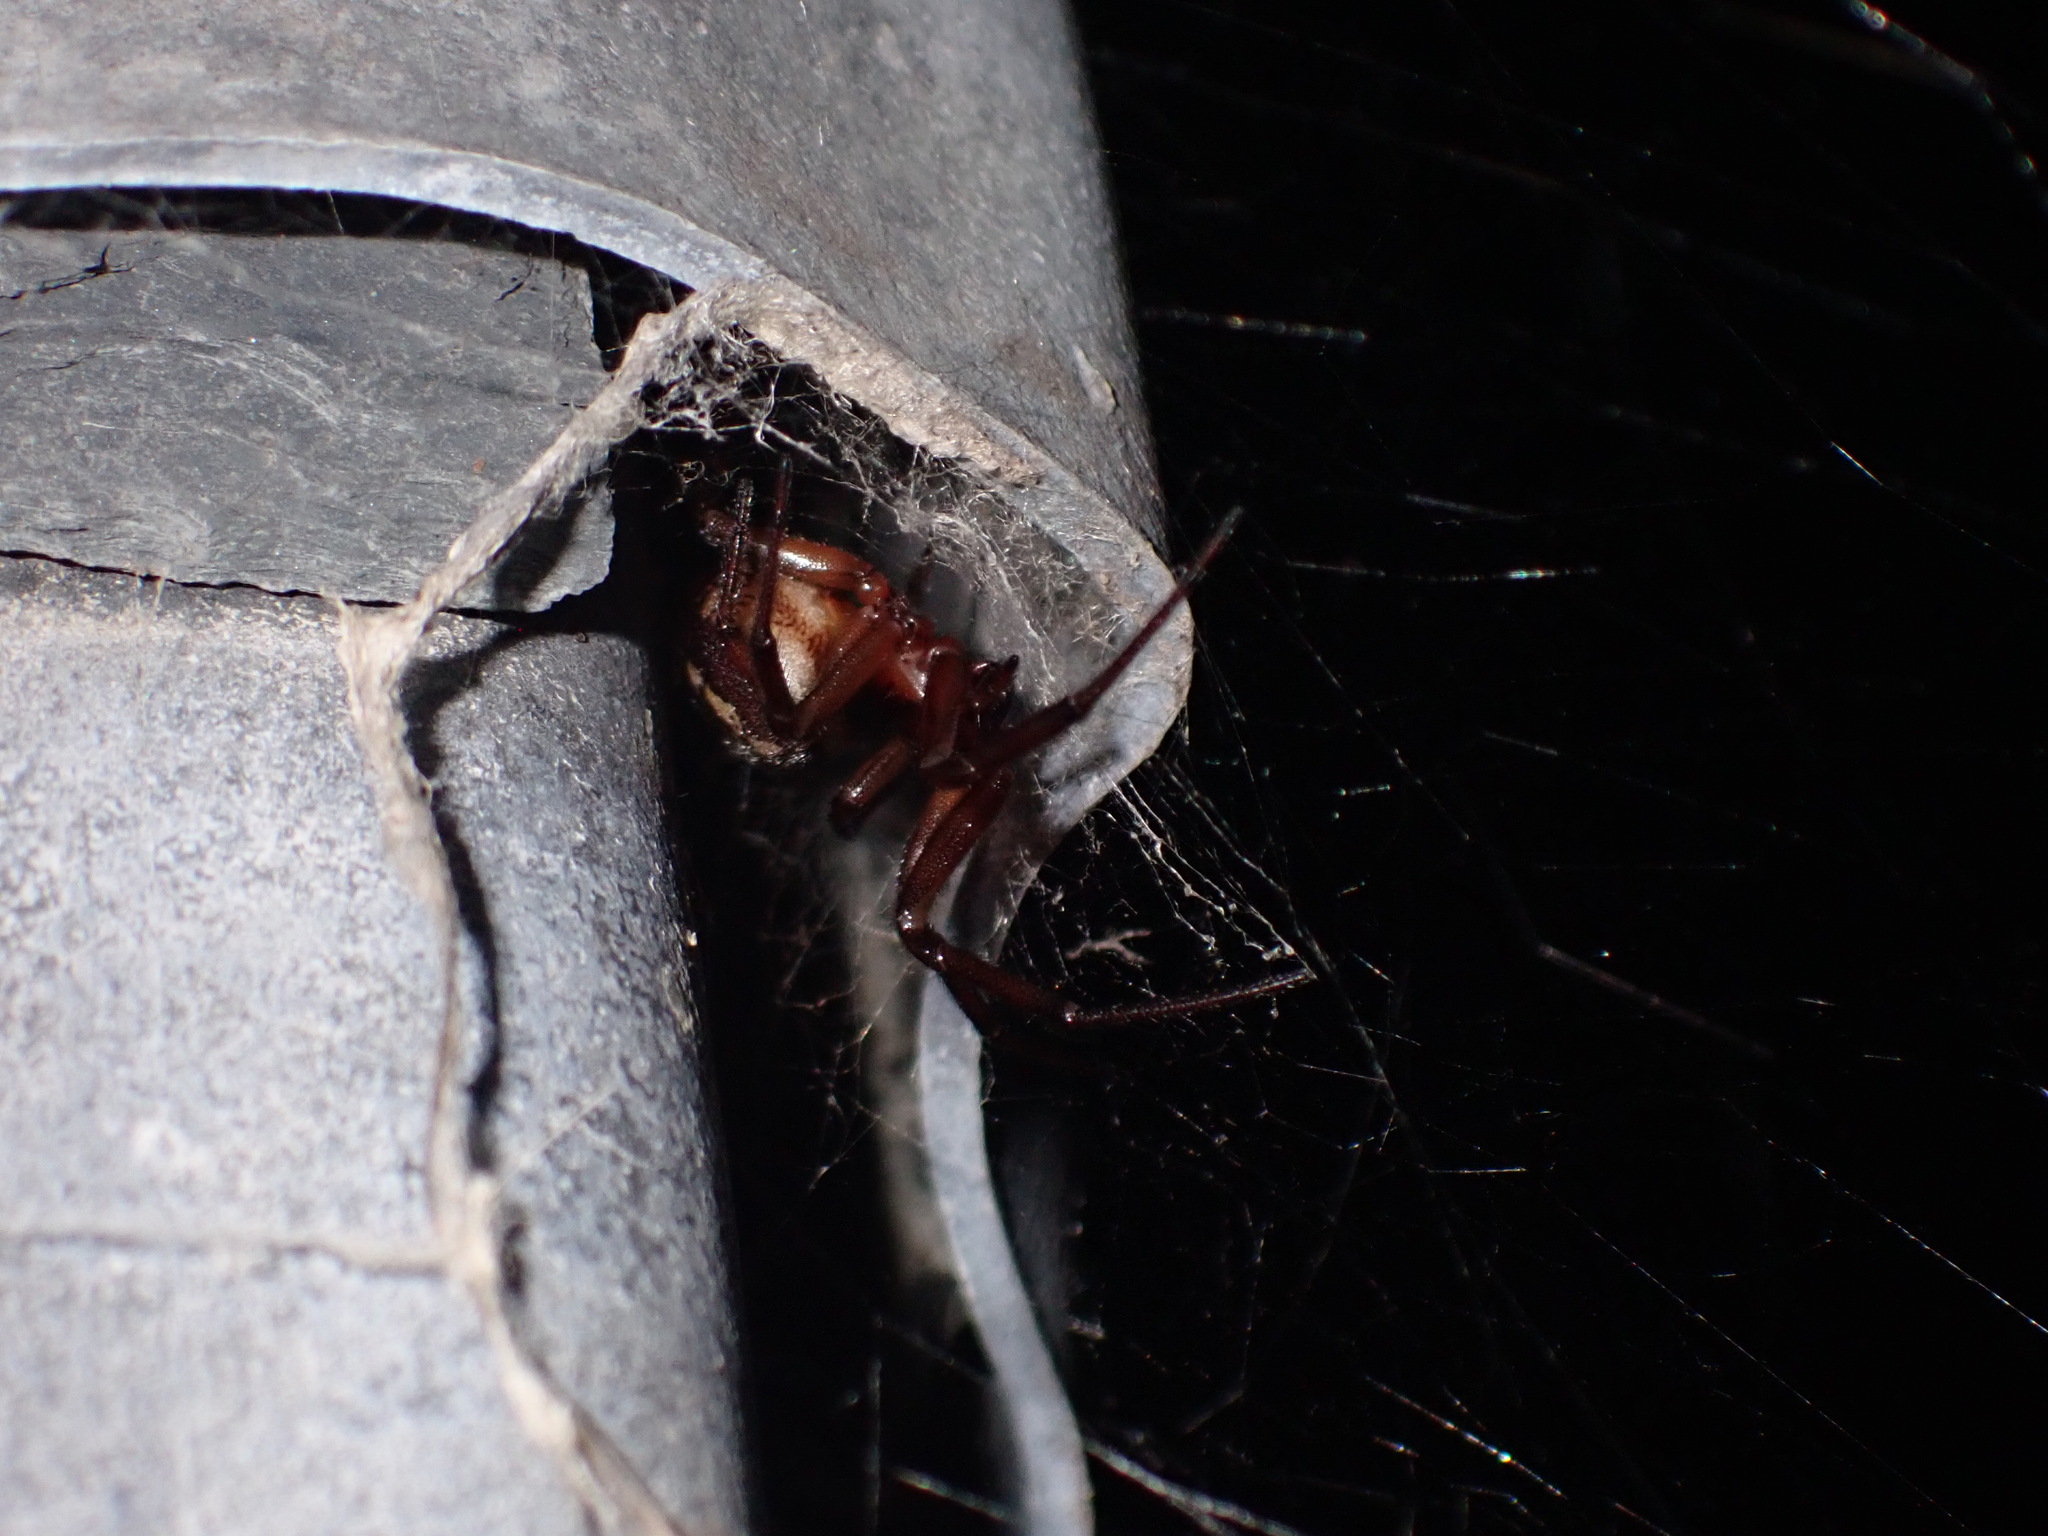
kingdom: Animalia
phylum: Arthropoda
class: Arachnida
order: Araneae
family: Theridiidae
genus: Steatoda
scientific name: Steatoda nobilis
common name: Cobweb weaver
